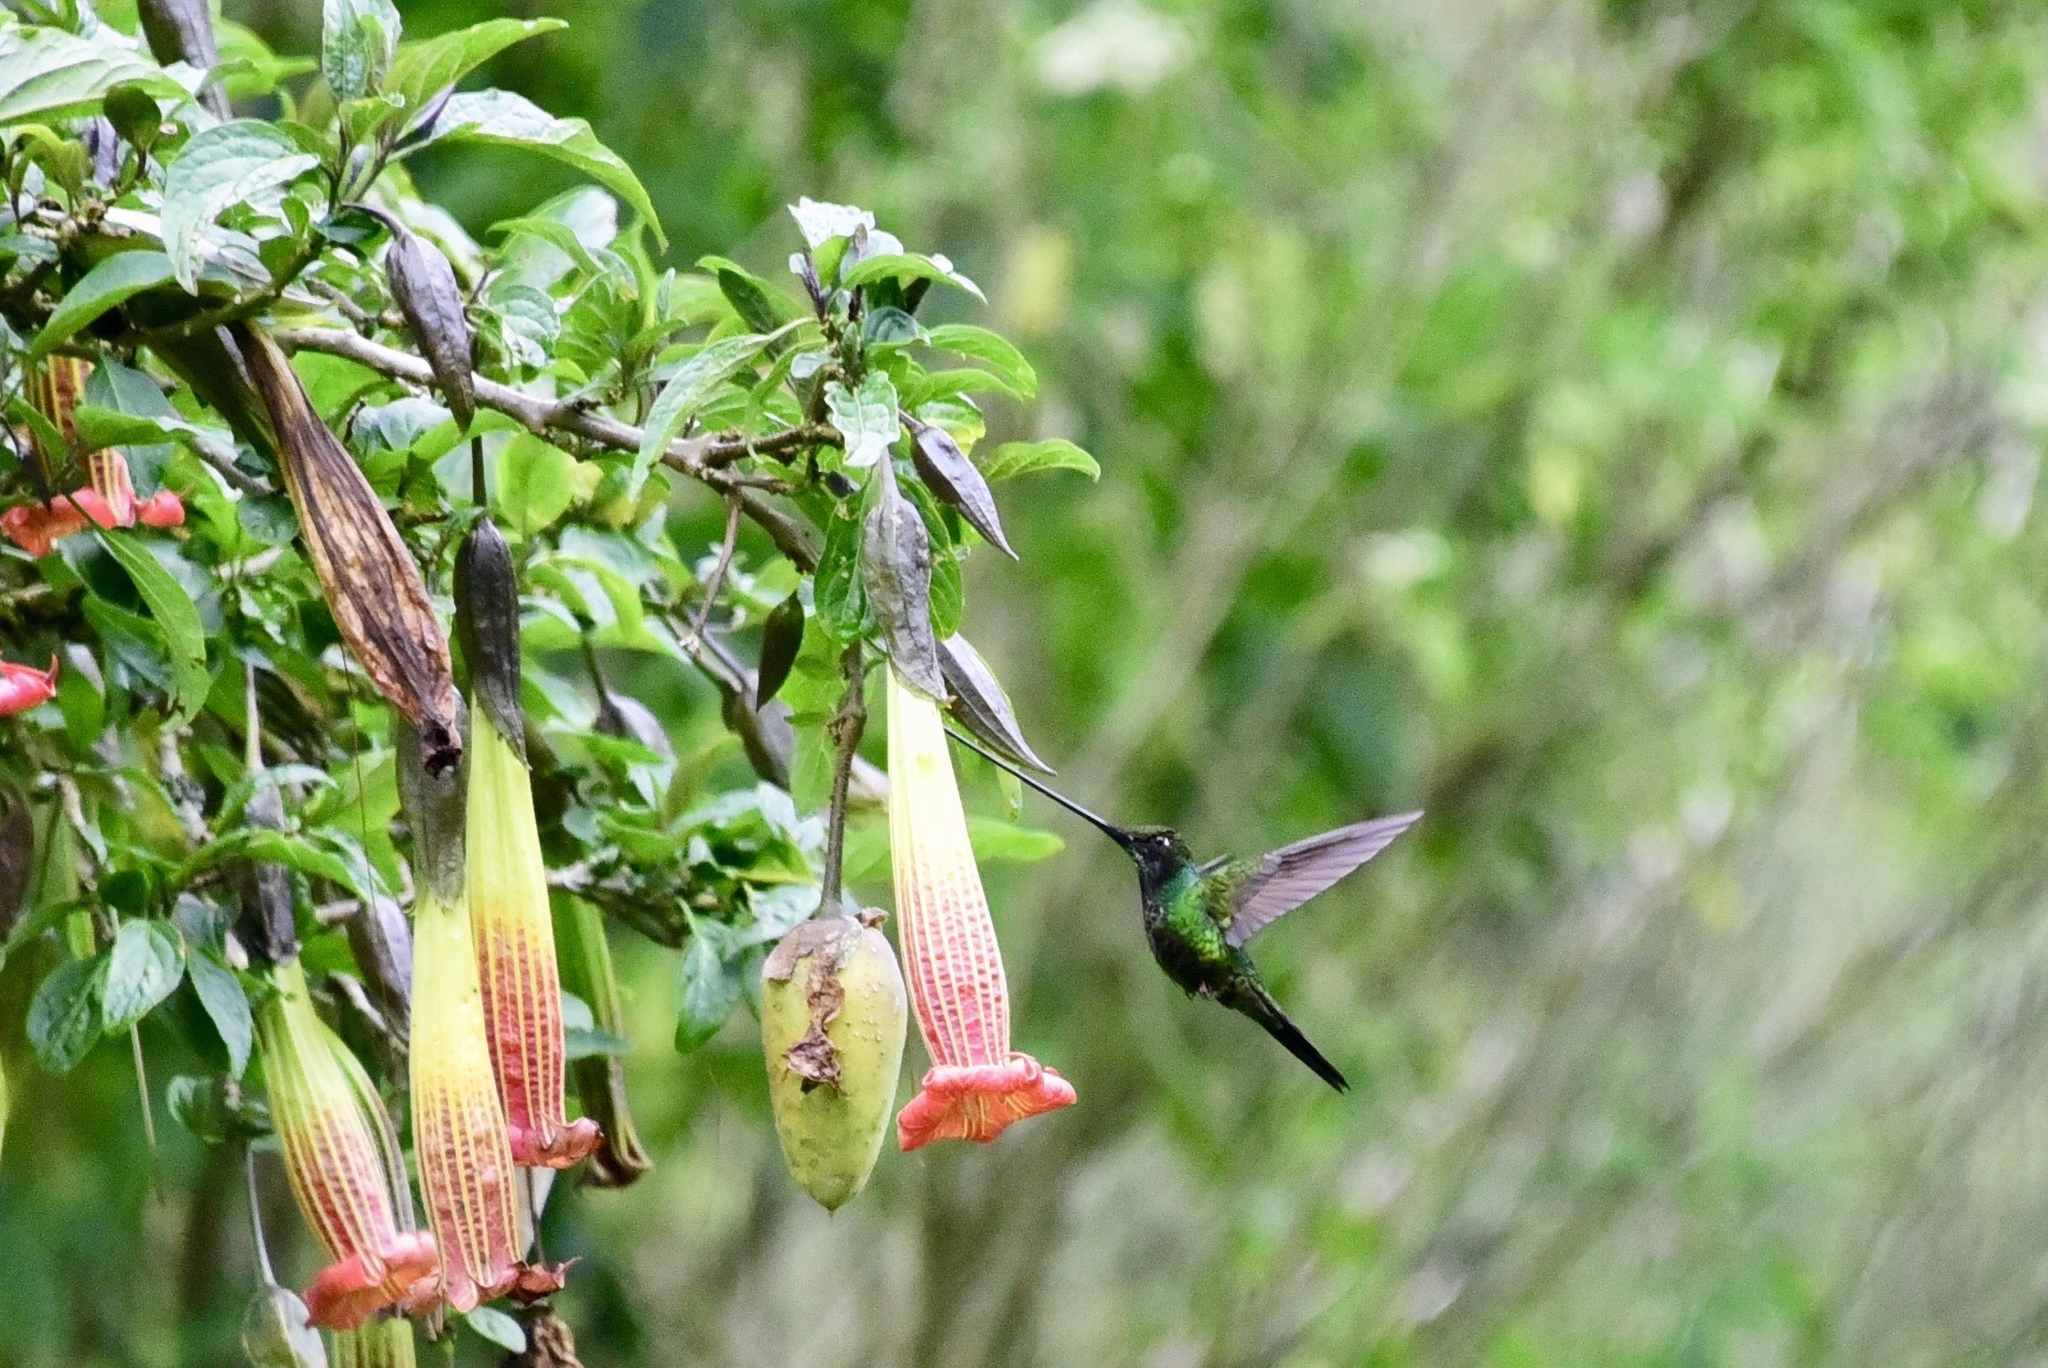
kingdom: Animalia
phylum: Chordata
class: Aves
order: Apodiformes
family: Trochilidae
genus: Ensifera
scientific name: Ensifera ensifera
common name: Sword-billed hummingbird
